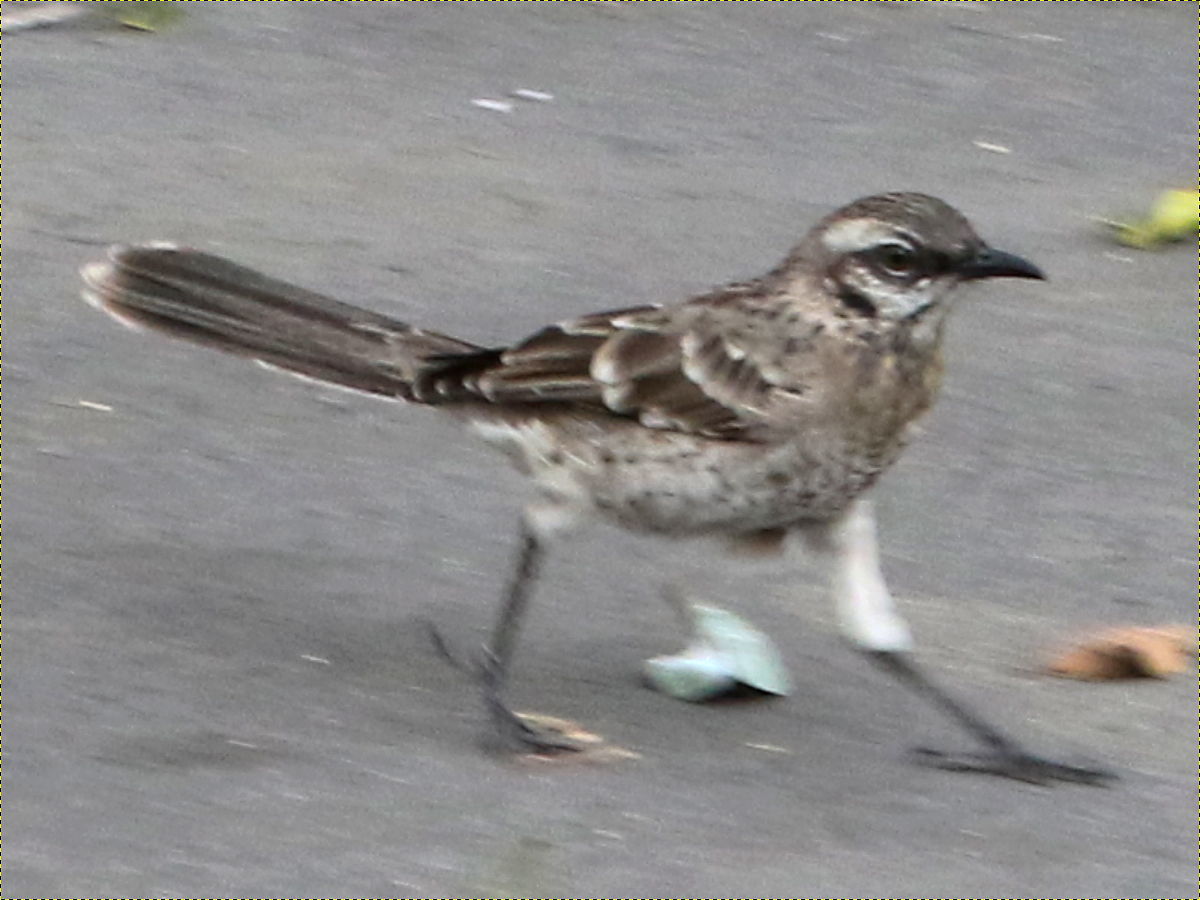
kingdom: Animalia
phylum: Chordata
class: Aves
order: Passeriformes
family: Mimidae
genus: Mimus
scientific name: Mimus longicaudatus
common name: Long-tailed mockingbird
